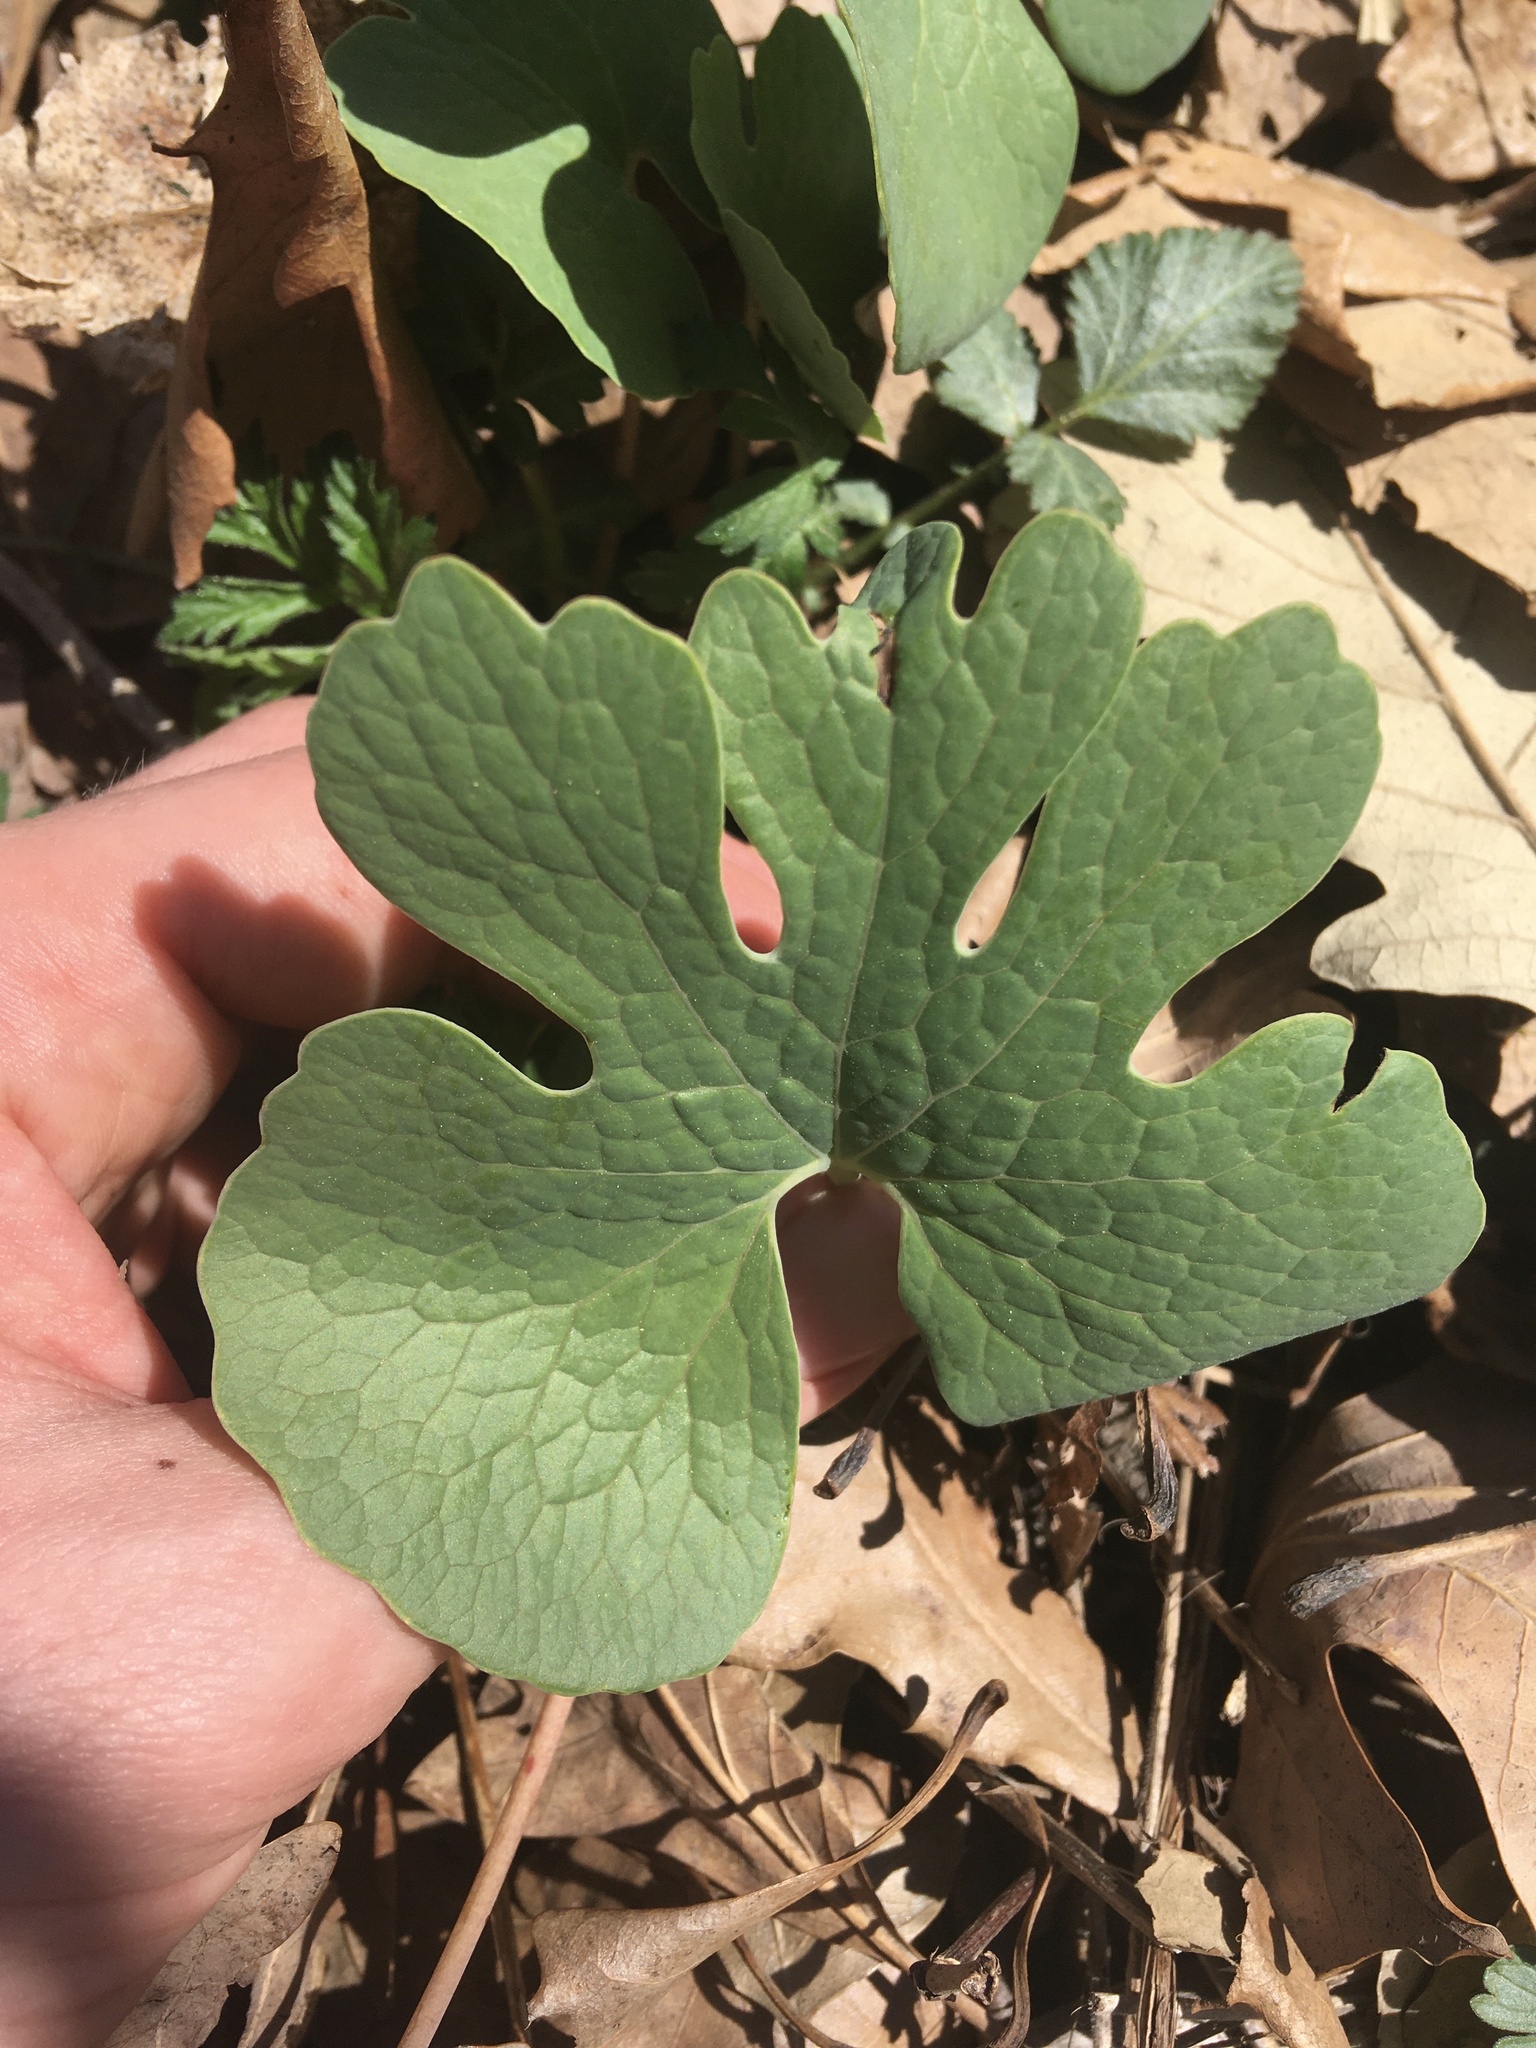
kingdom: Plantae
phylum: Tracheophyta
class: Magnoliopsida
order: Ranunculales
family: Papaveraceae
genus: Sanguinaria
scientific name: Sanguinaria canadensis
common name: Bloodroot
